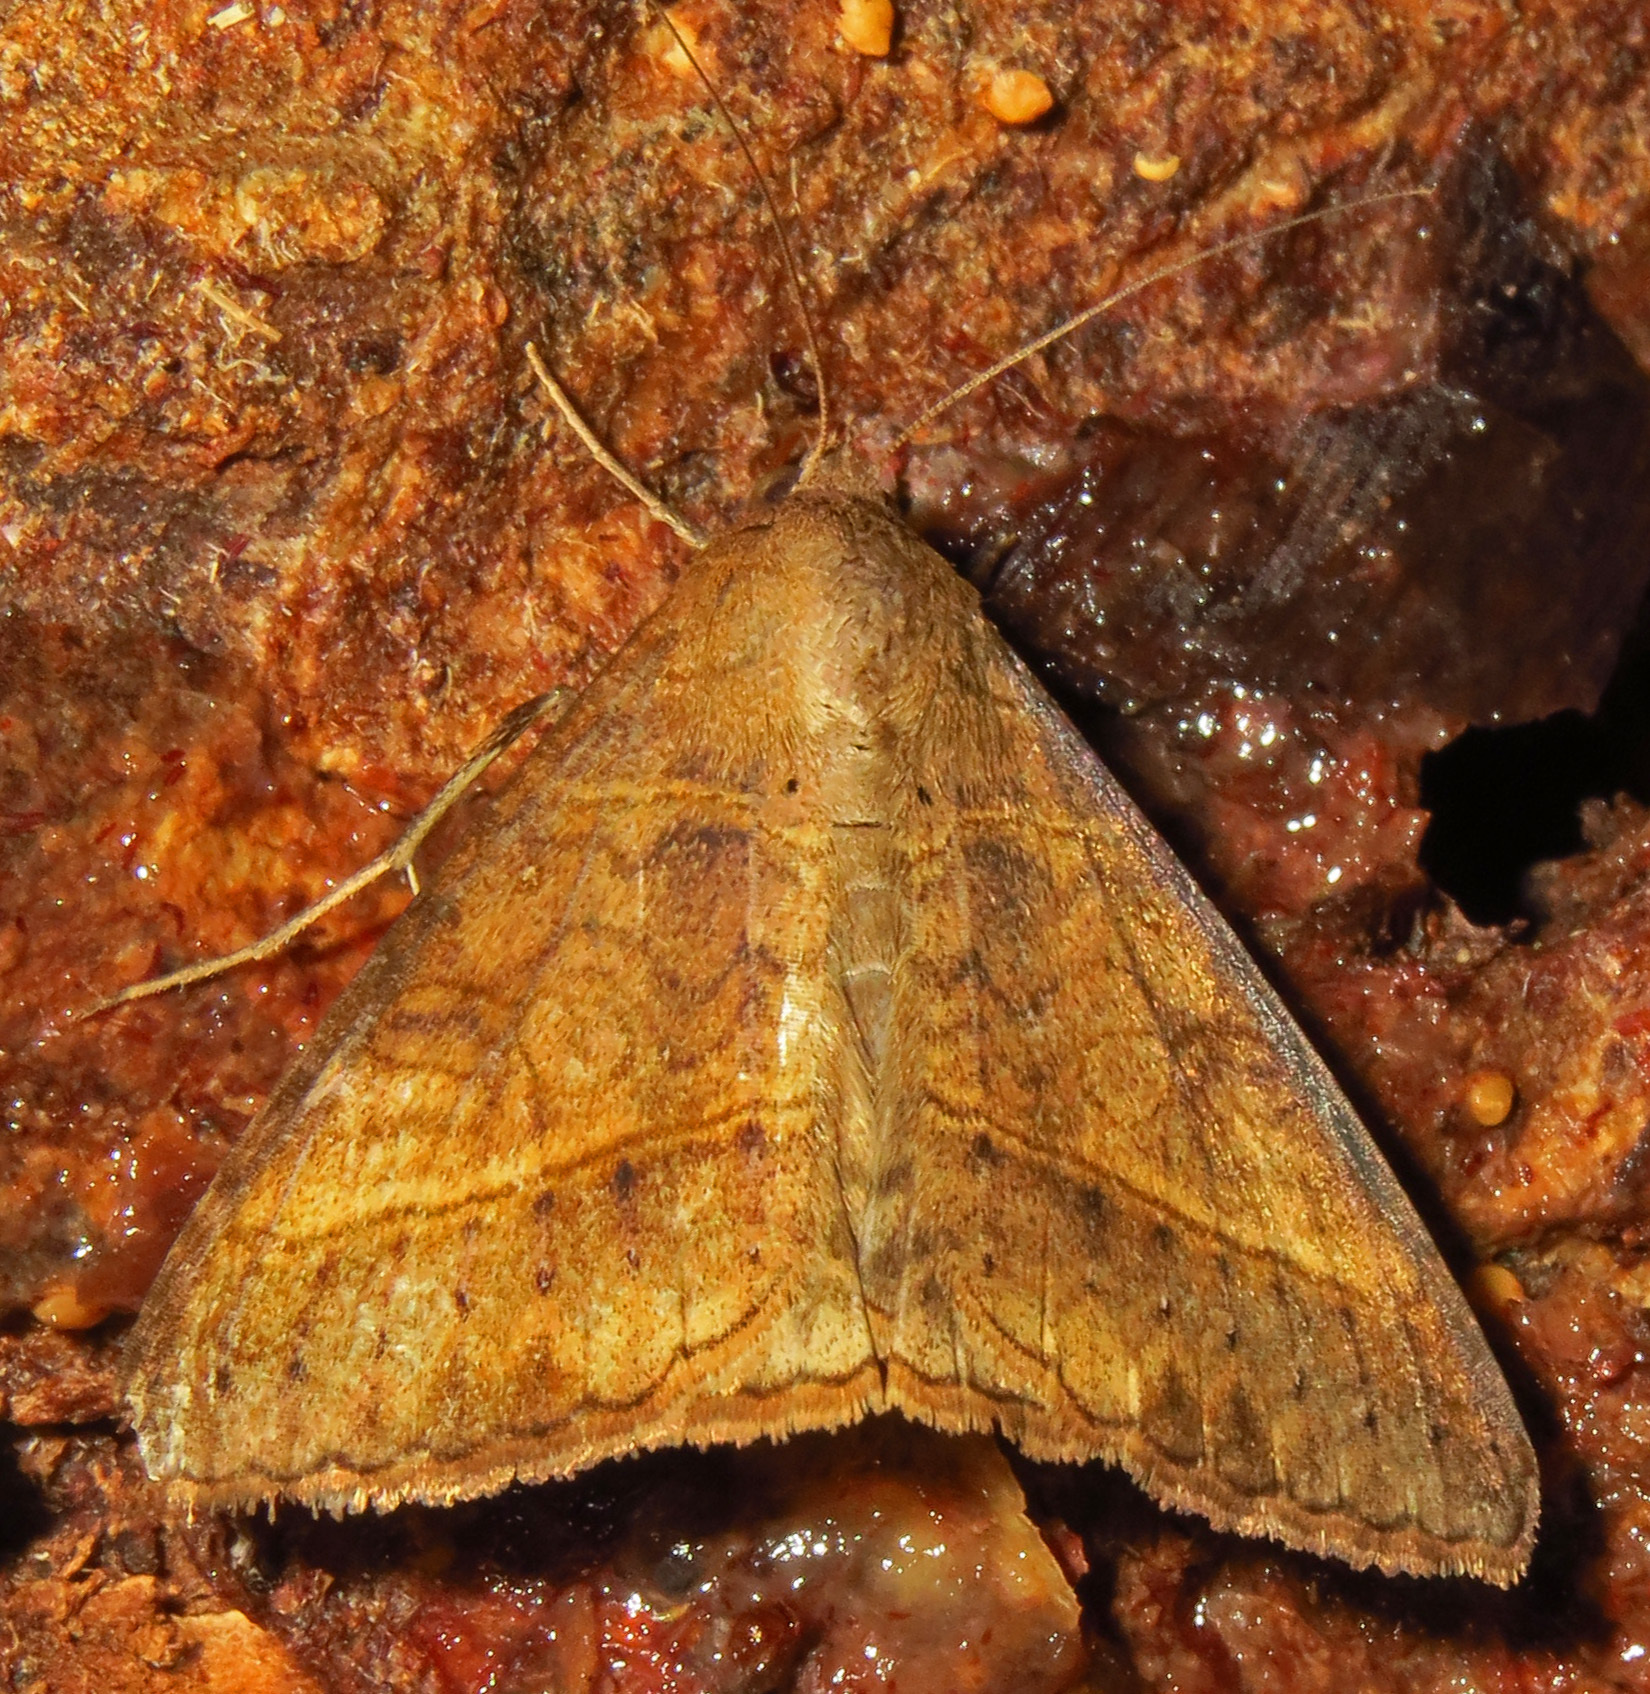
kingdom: Animalia
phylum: Arthropoda
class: Insecta
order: Lepidoptera
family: Erebidae
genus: Mocis
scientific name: Mocis latipes
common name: Striped grass looper
